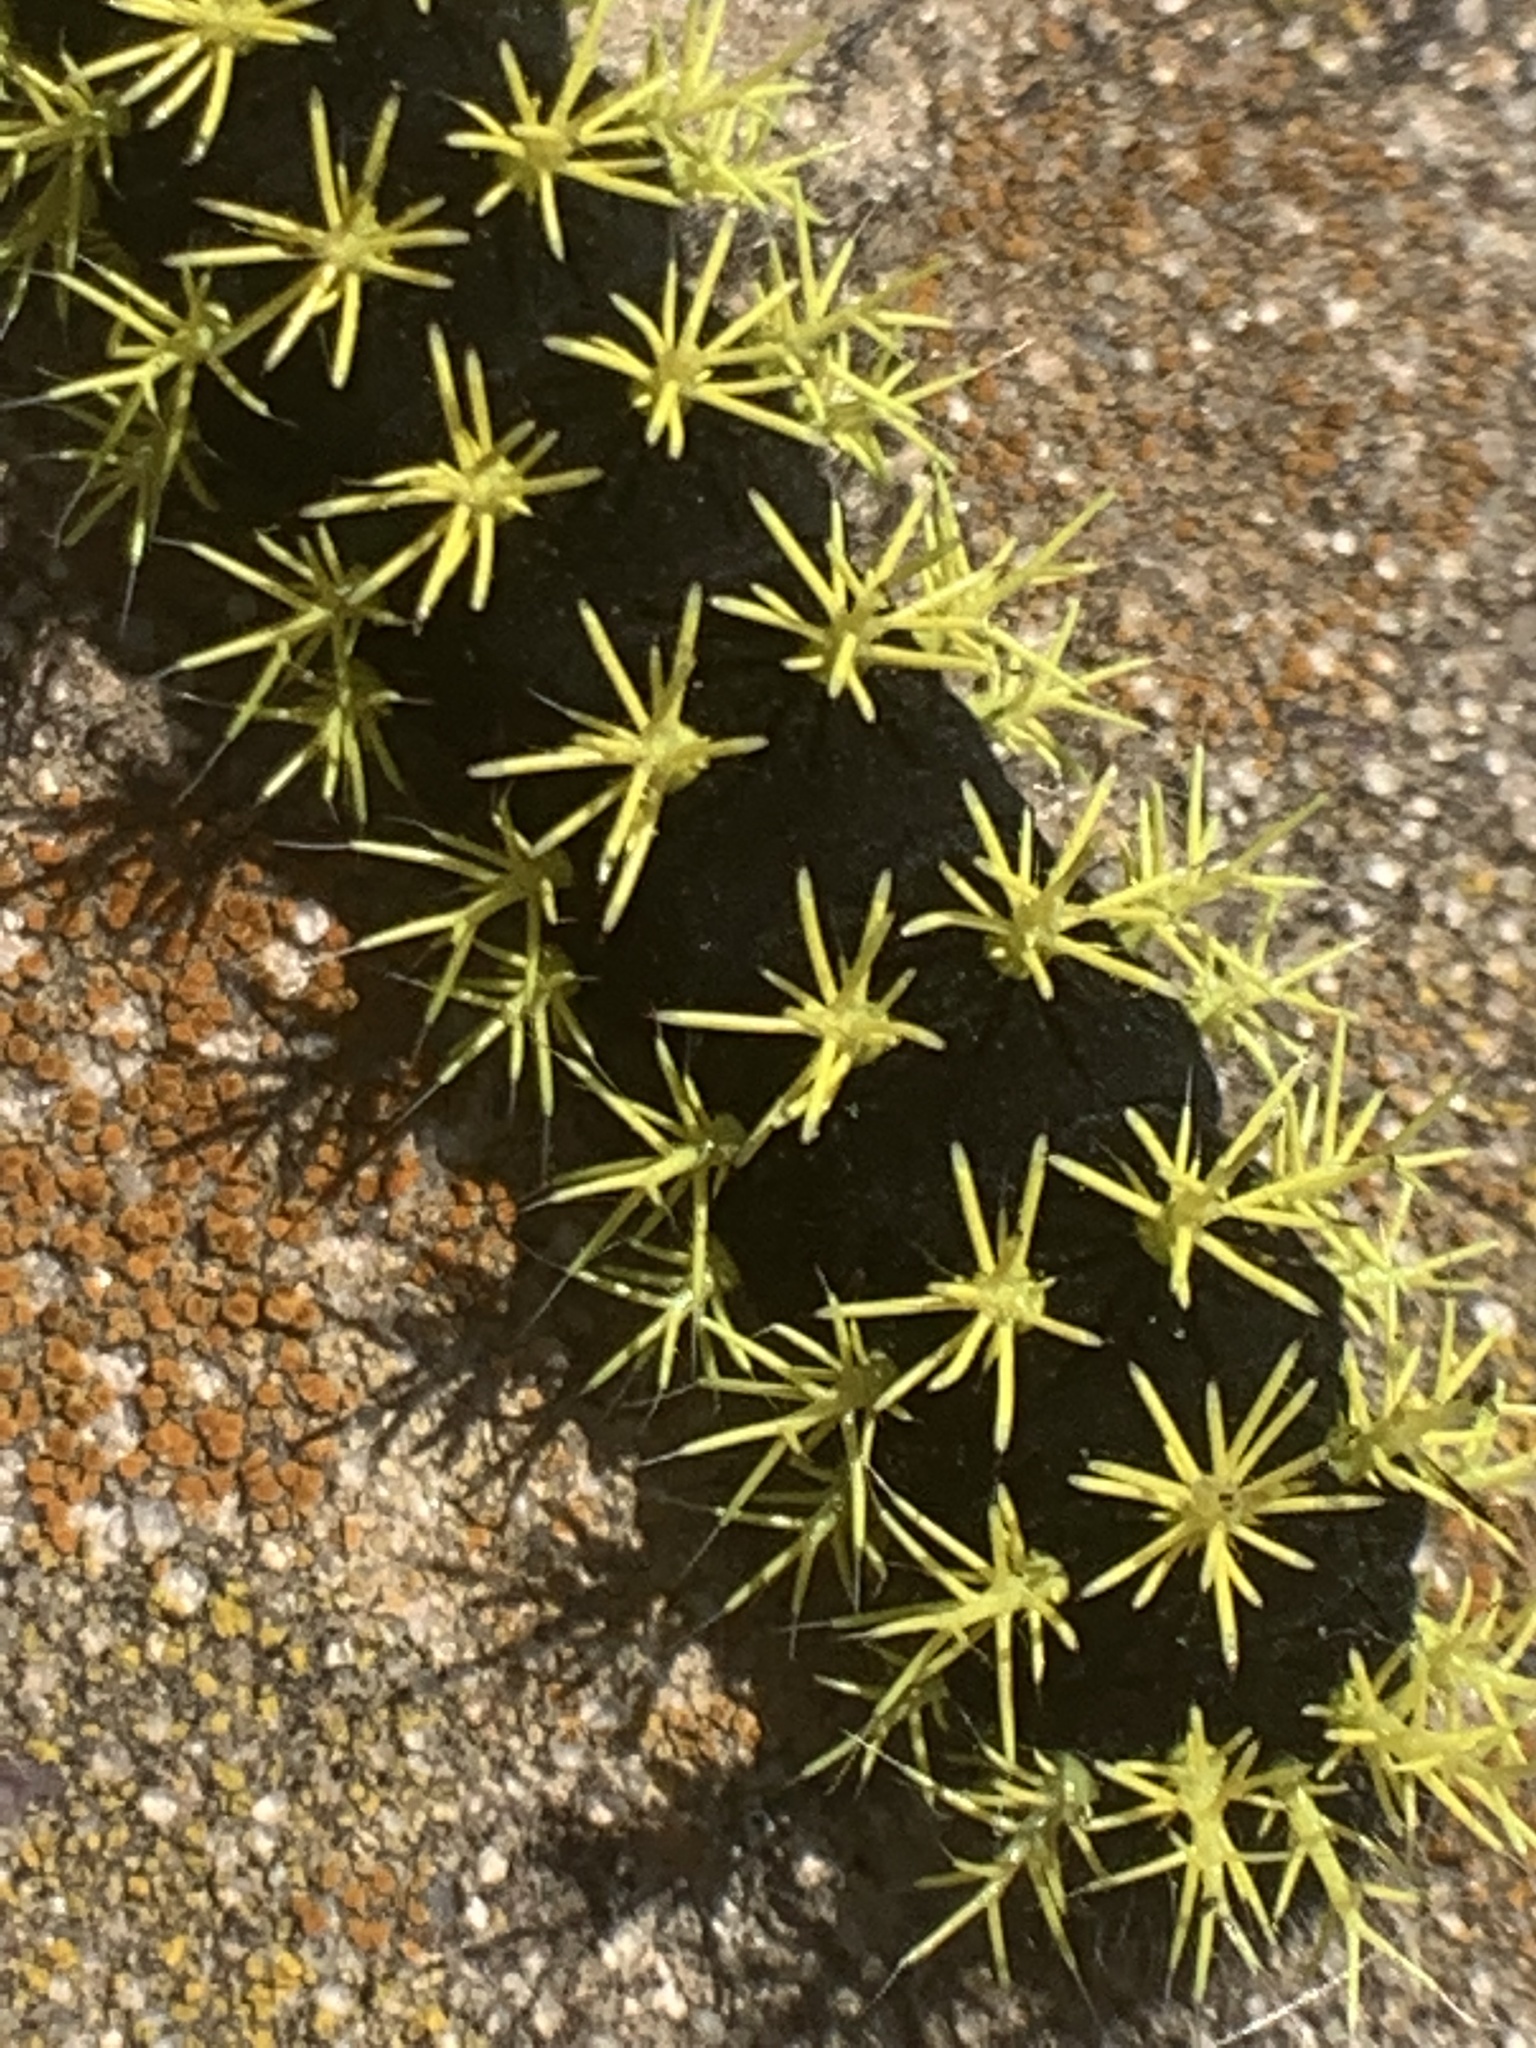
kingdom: Animalia
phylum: Arthropoda
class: Insecta
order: Lepidoptera
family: Saturniidae
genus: Leucanella
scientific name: Leucanella viridescens
